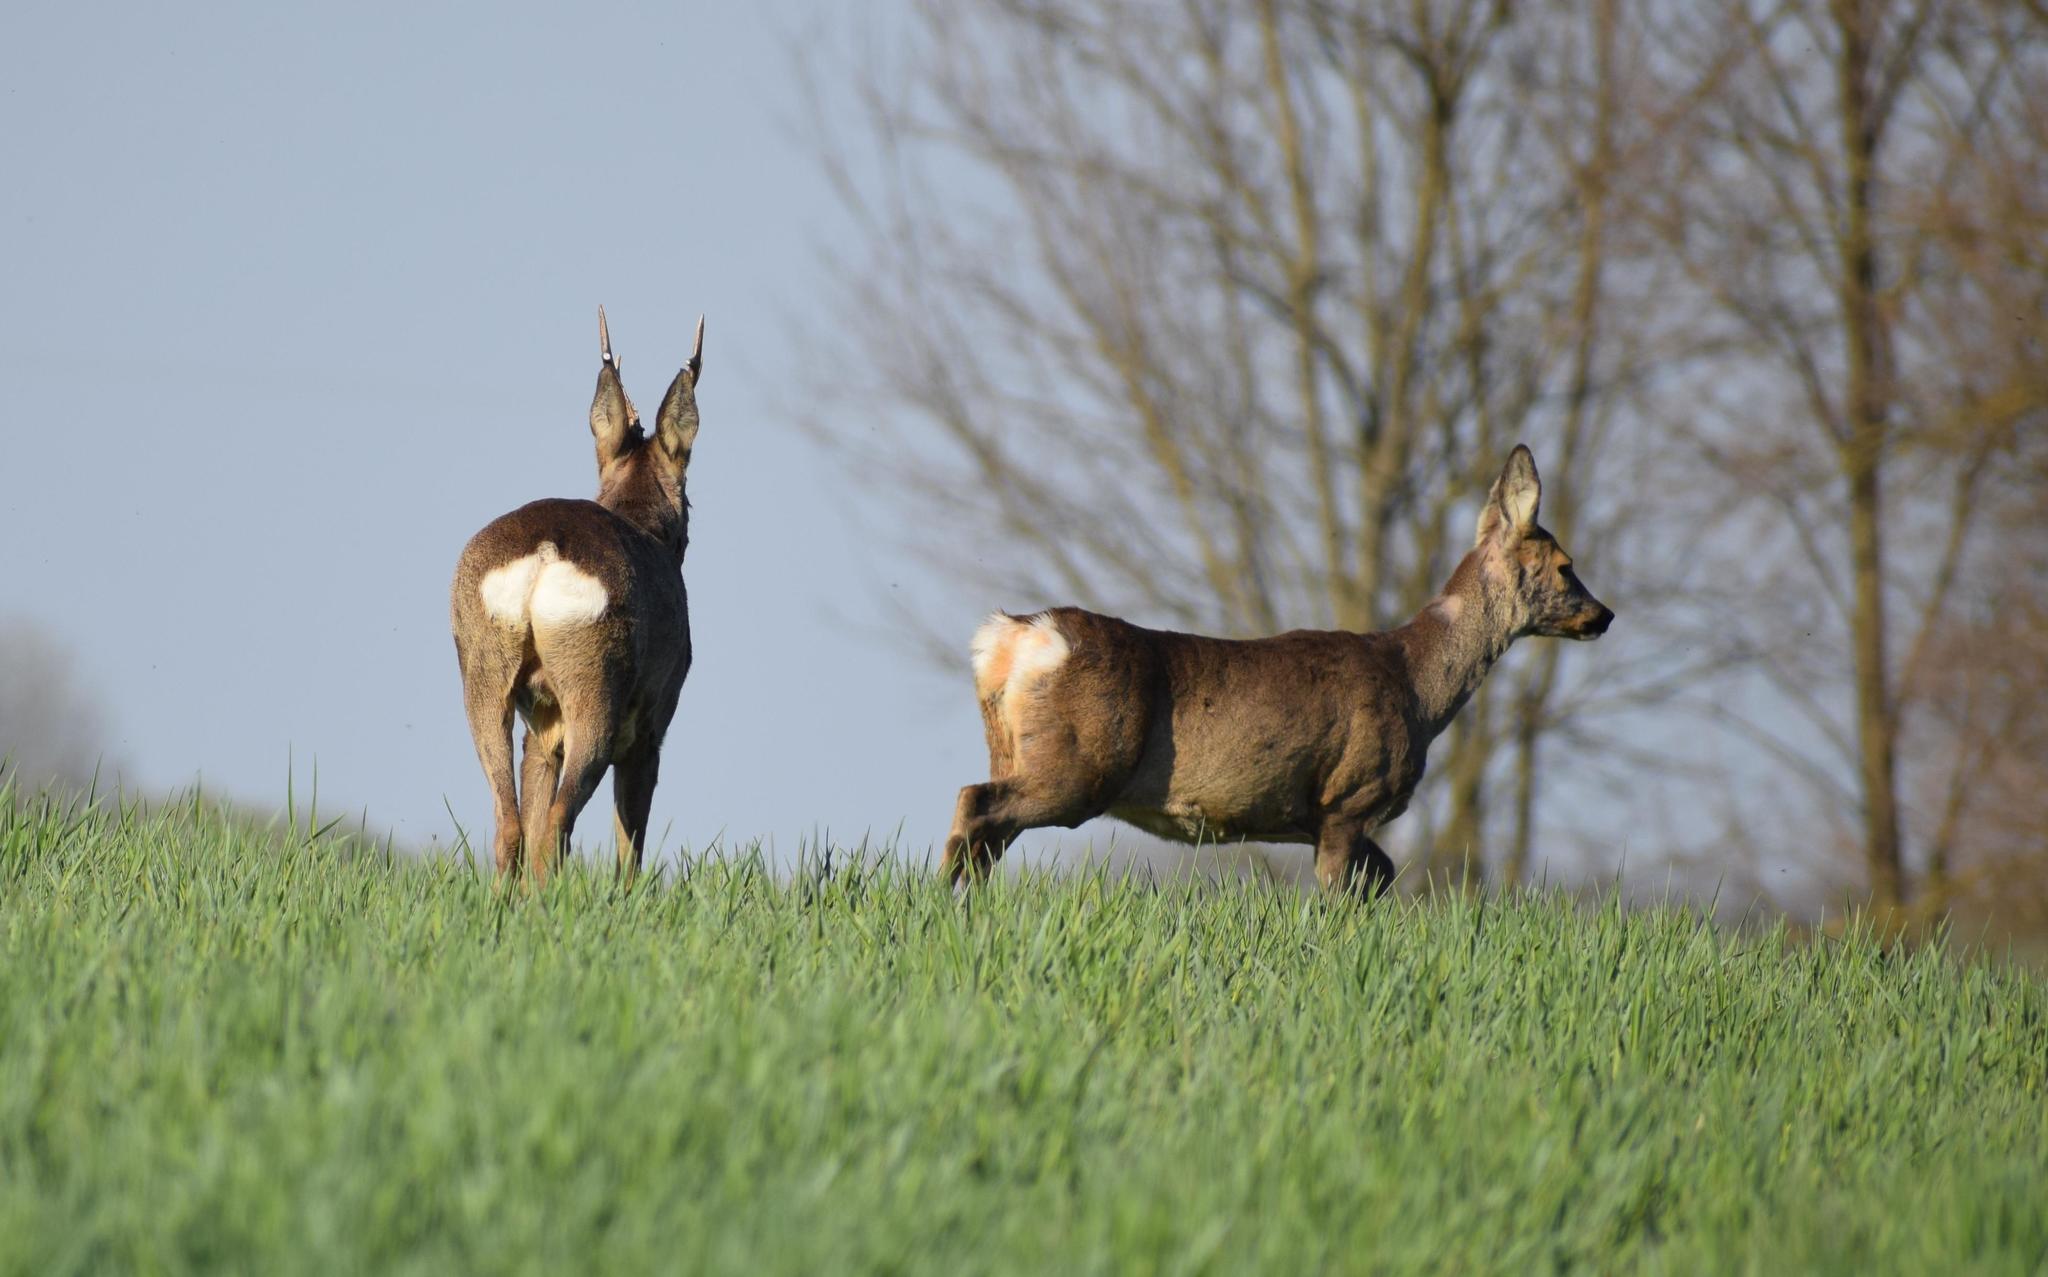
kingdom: Animalia
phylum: Chordata
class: Mammalia
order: Artiodactyla
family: Cervidae
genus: Capreolus
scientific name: Capreolus capreolus
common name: Western roe deer
